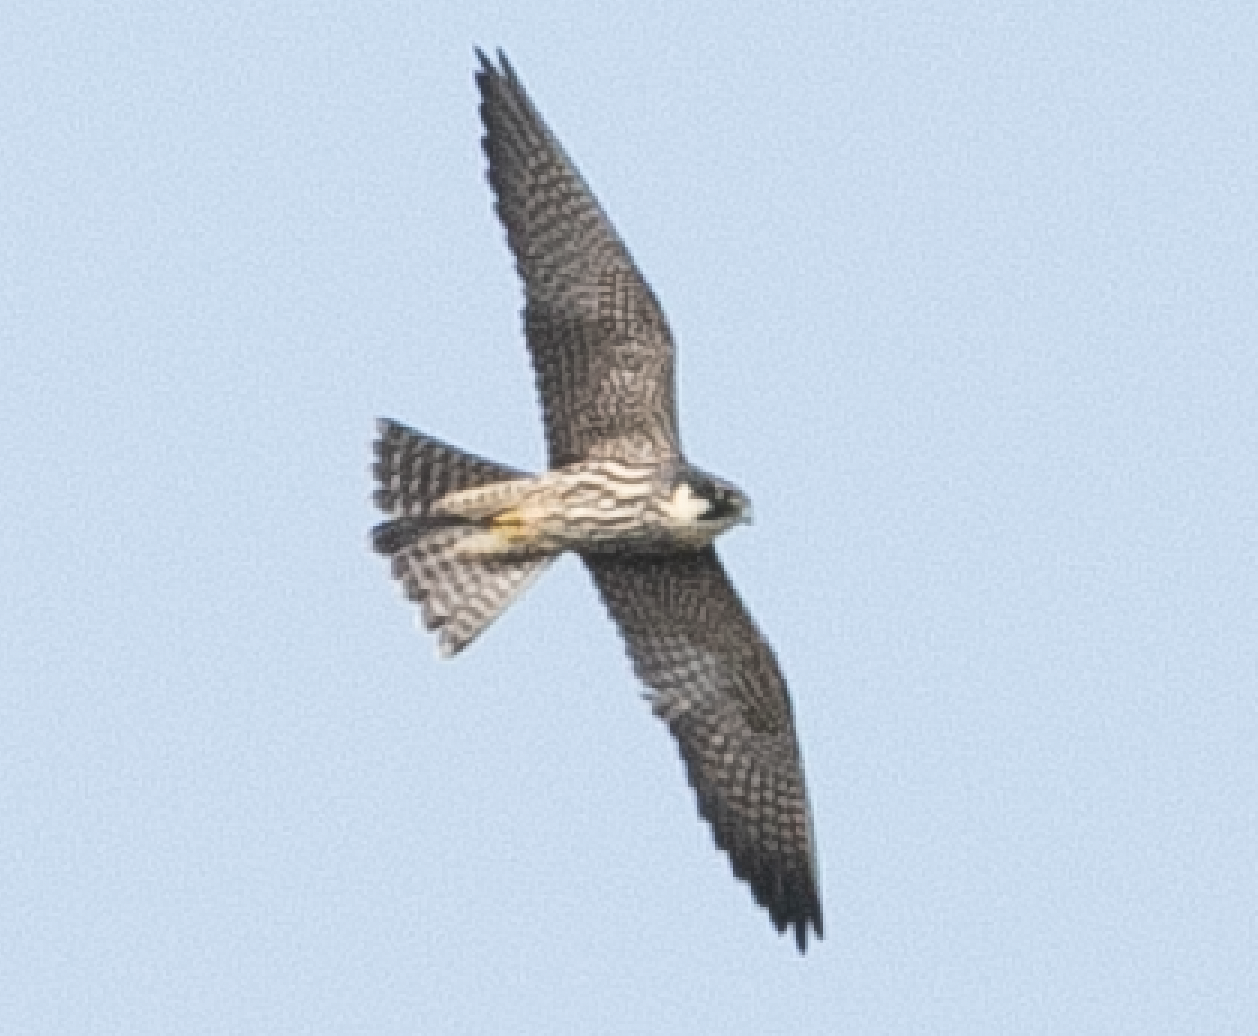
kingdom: Animalia
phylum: Chordata
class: Aves
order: Falconiformes
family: Falconidae
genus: Falco
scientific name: Falco subbuteo
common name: Eurasian hobby
